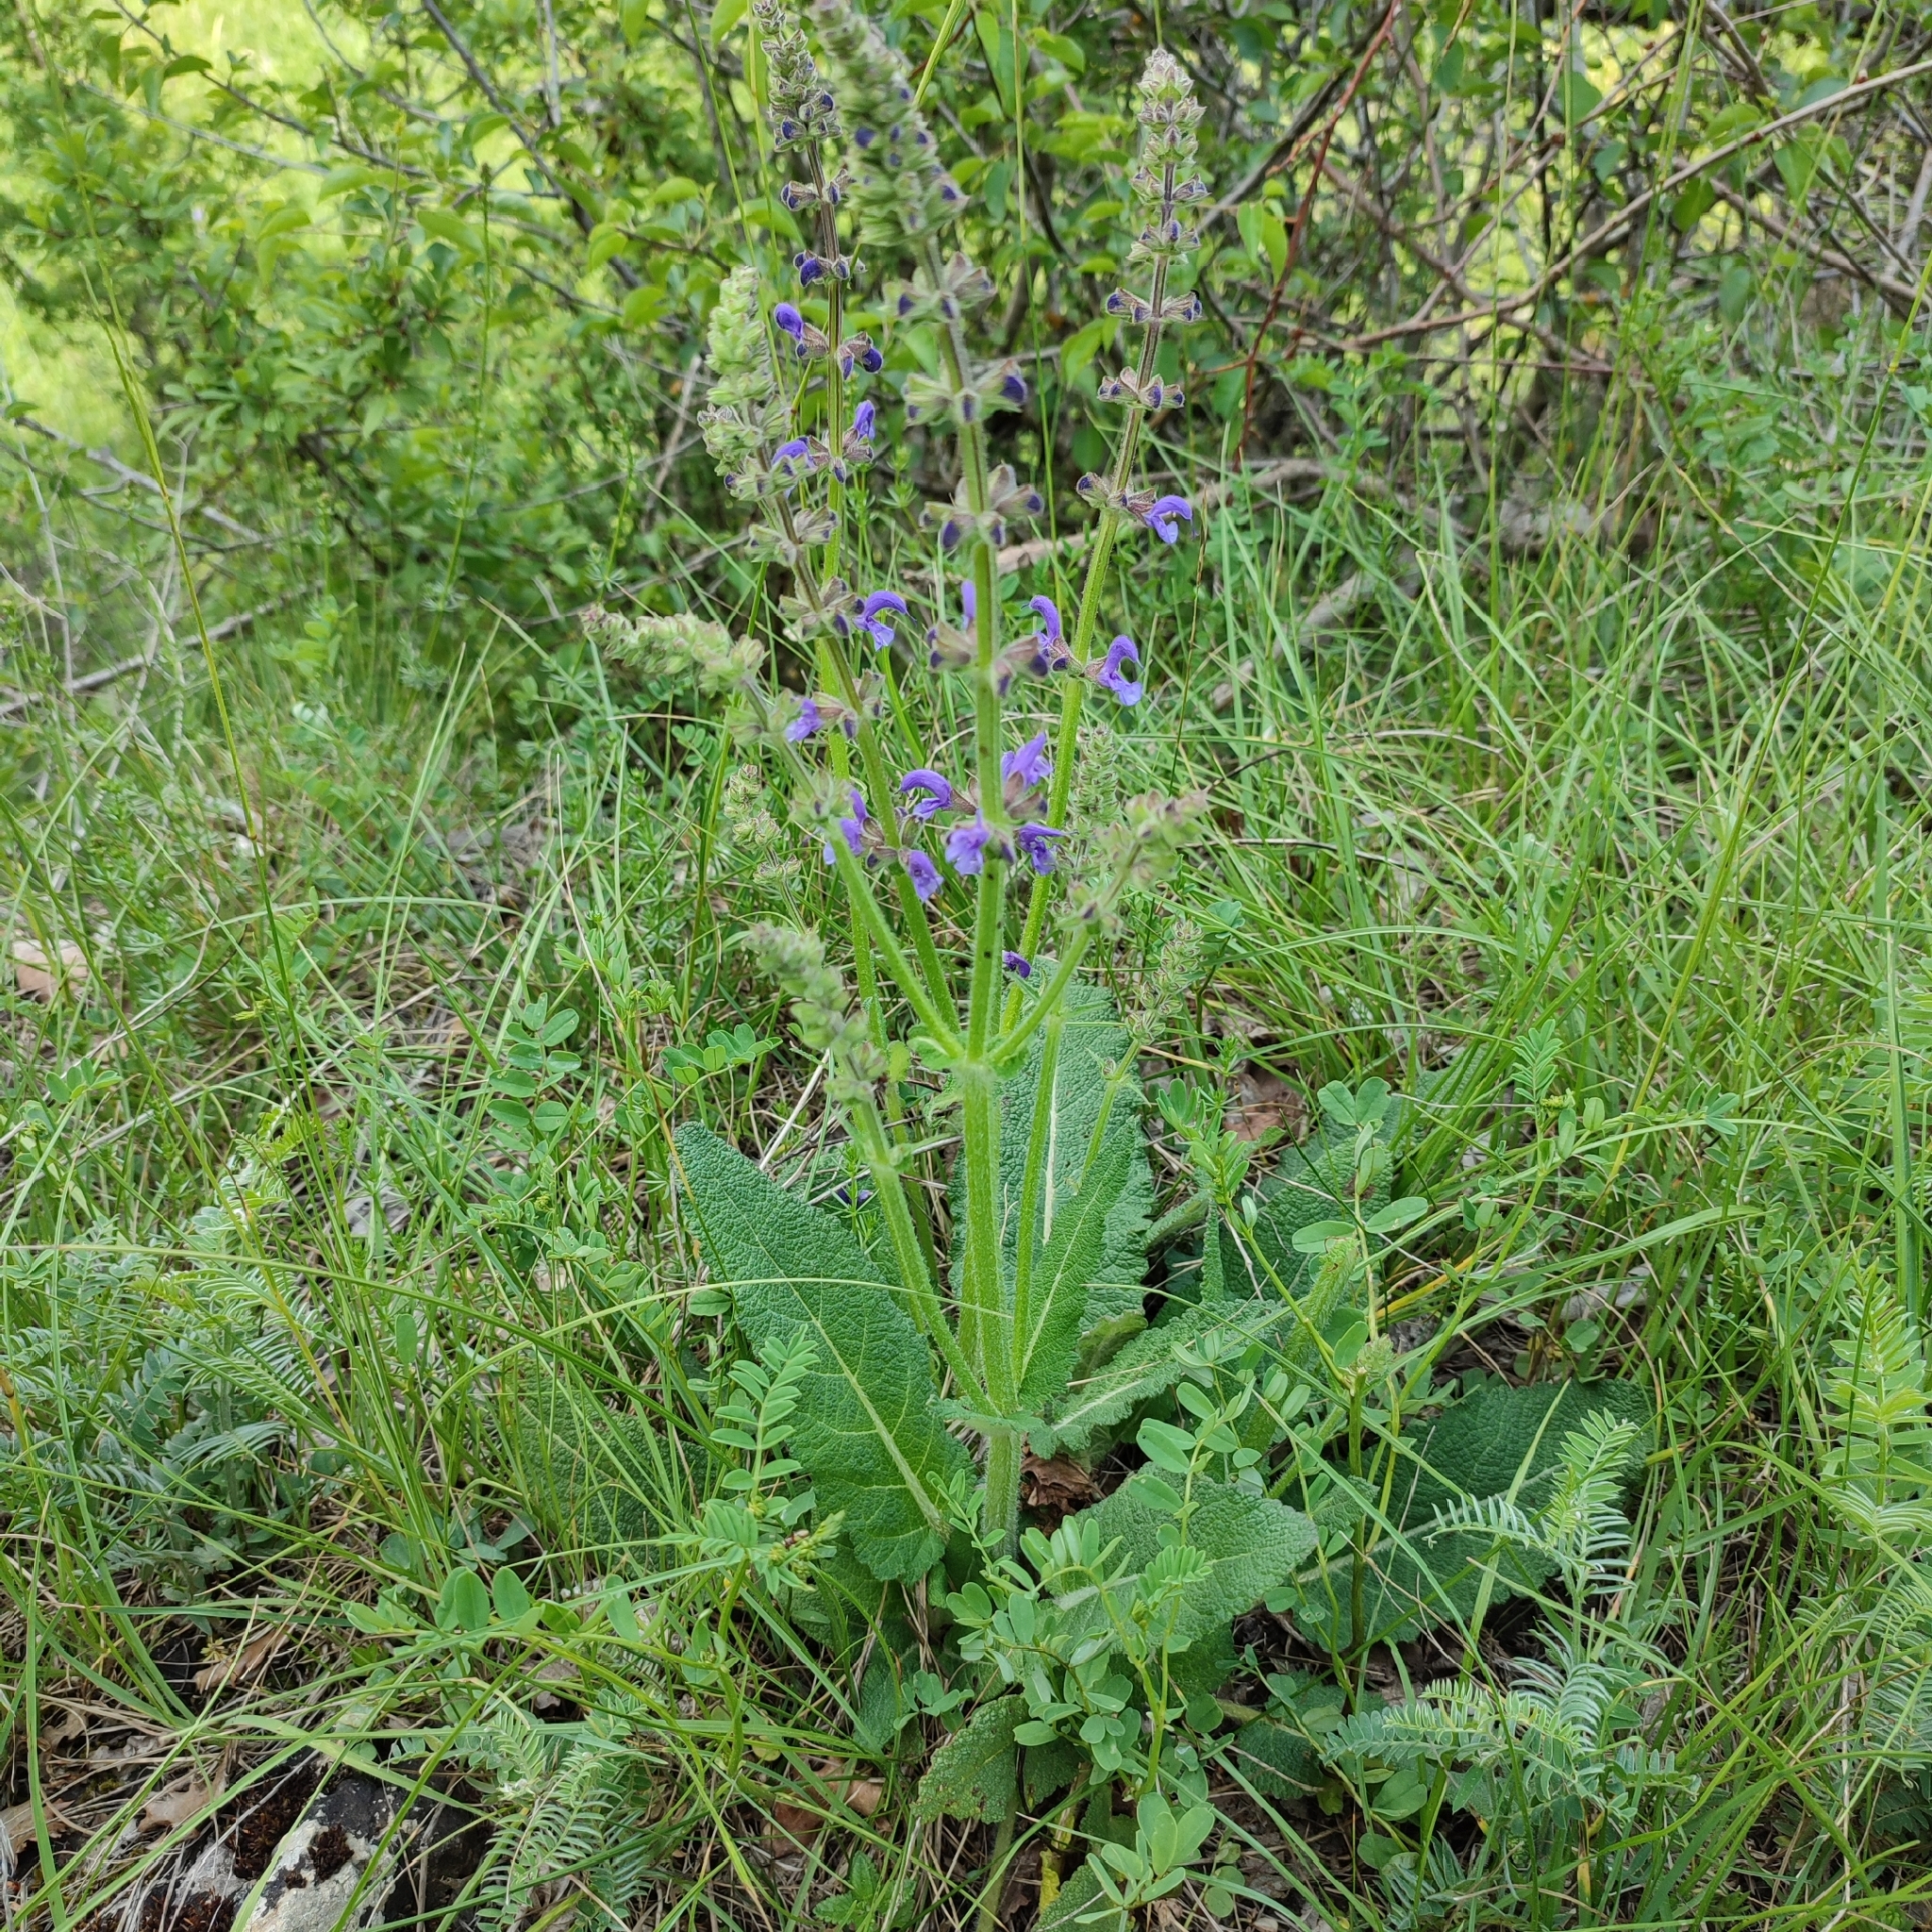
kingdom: Plantae
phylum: Tracheophyta
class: Magnoliopsida
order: Lamiales
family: Lamiaceae
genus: Salvia
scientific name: Salvia pratensis
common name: Meadow sage
